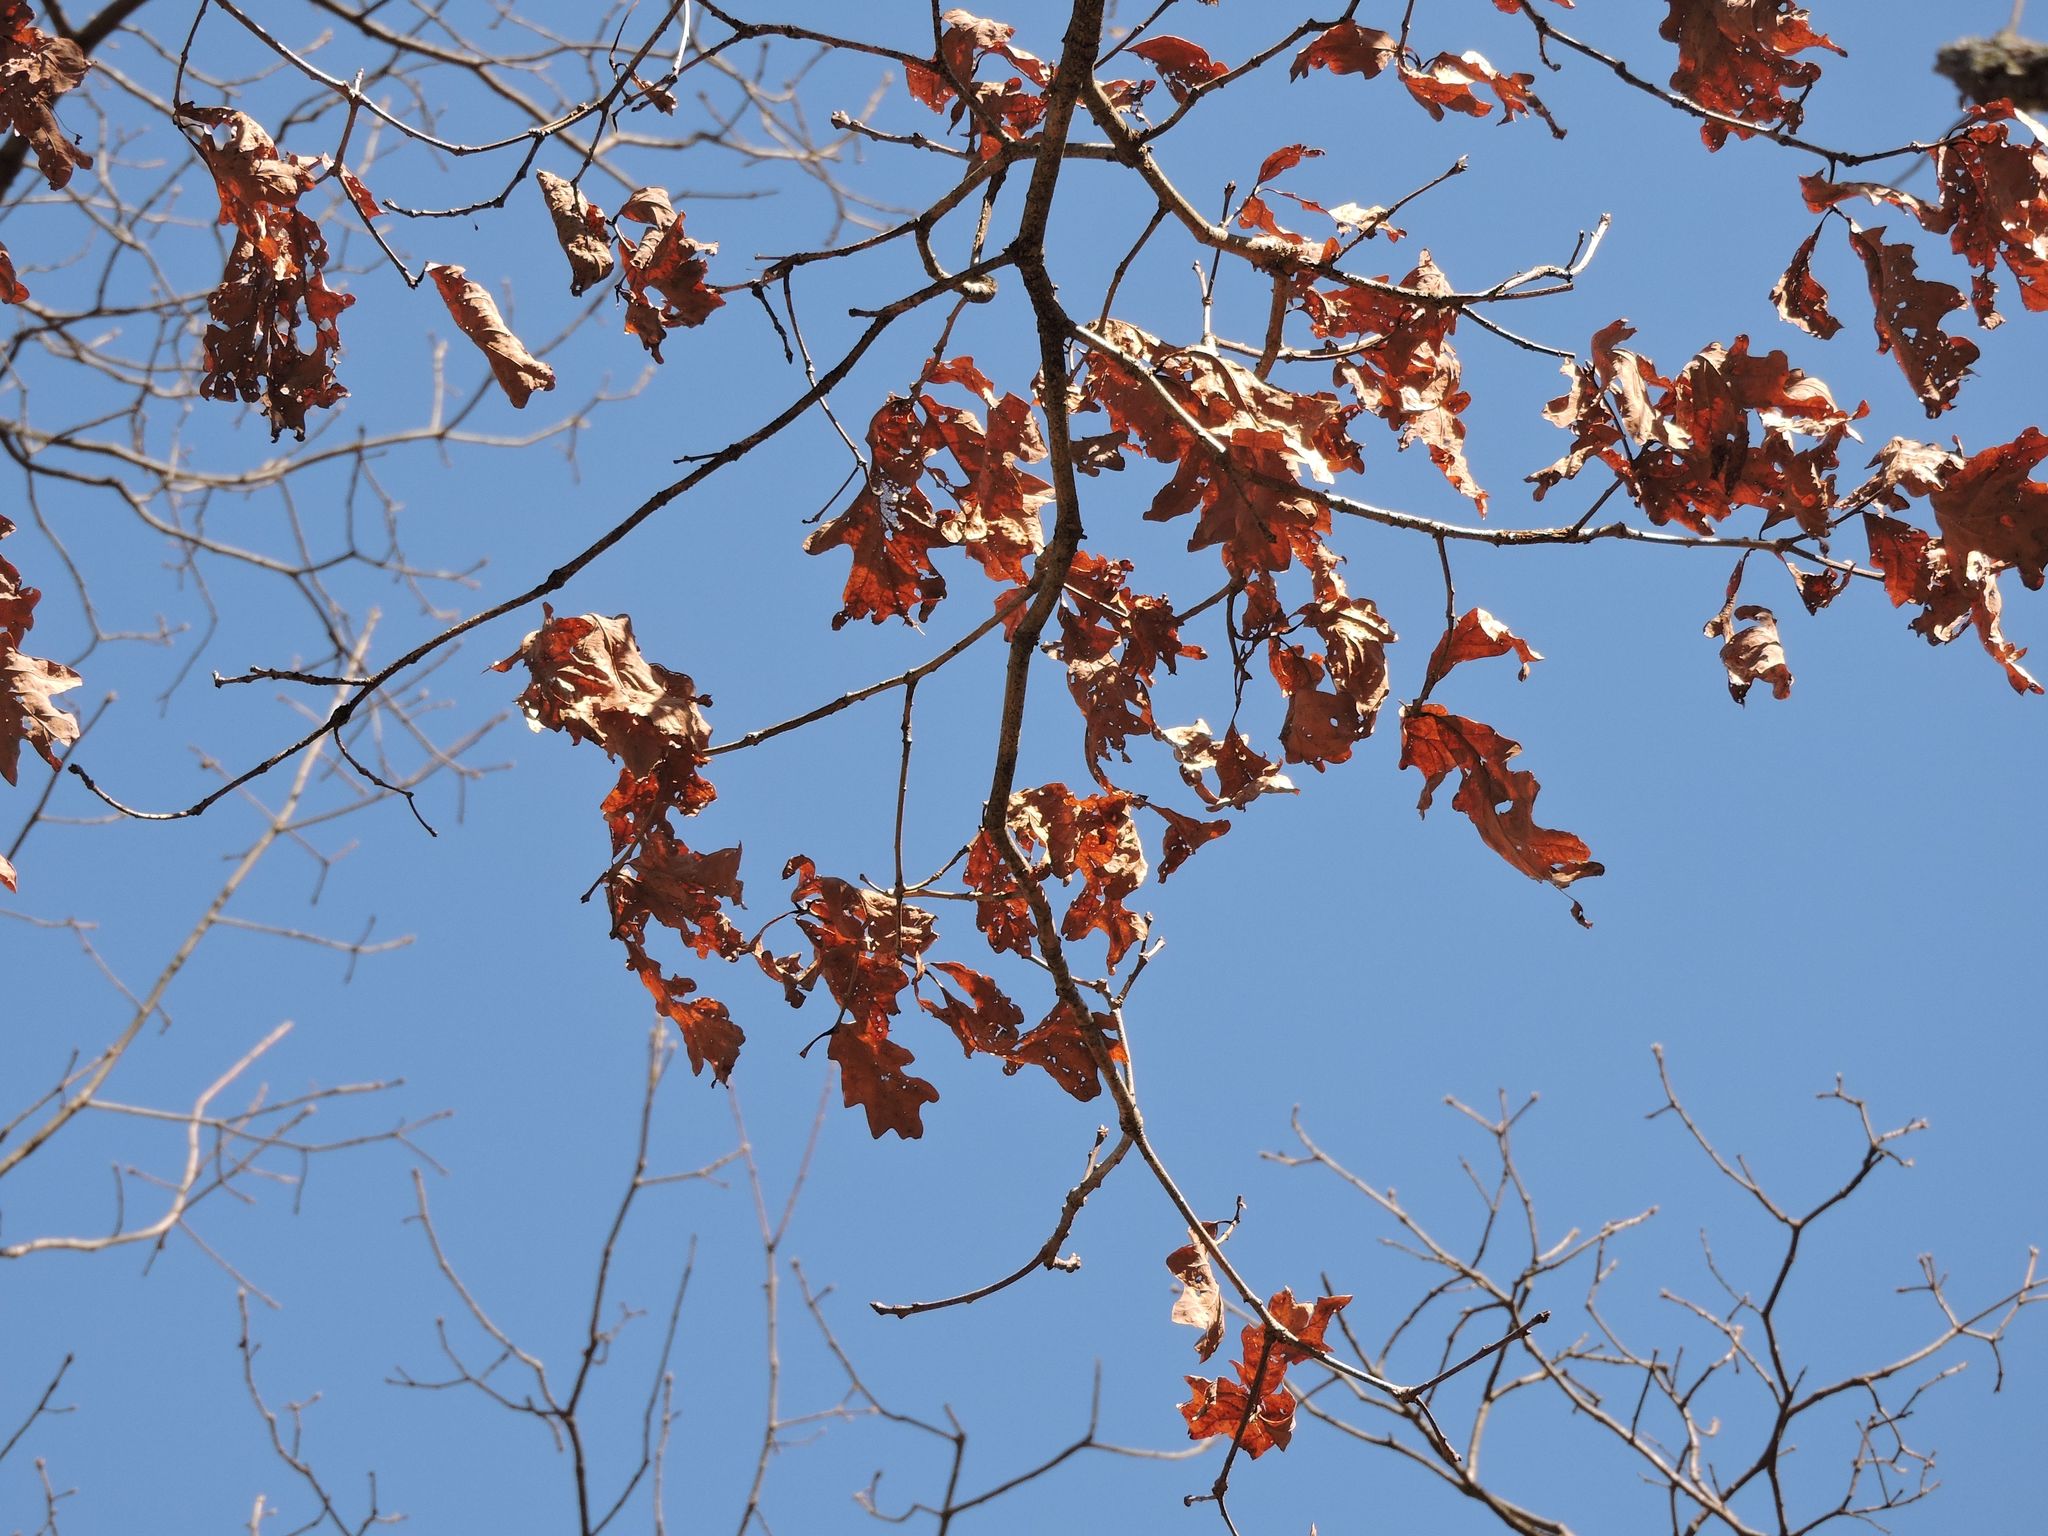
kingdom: Plantae
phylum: Tracheophyta
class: Magnoliopsida
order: Fagales
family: Fagaceae
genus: Quercus
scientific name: Quercus alba
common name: White oak
